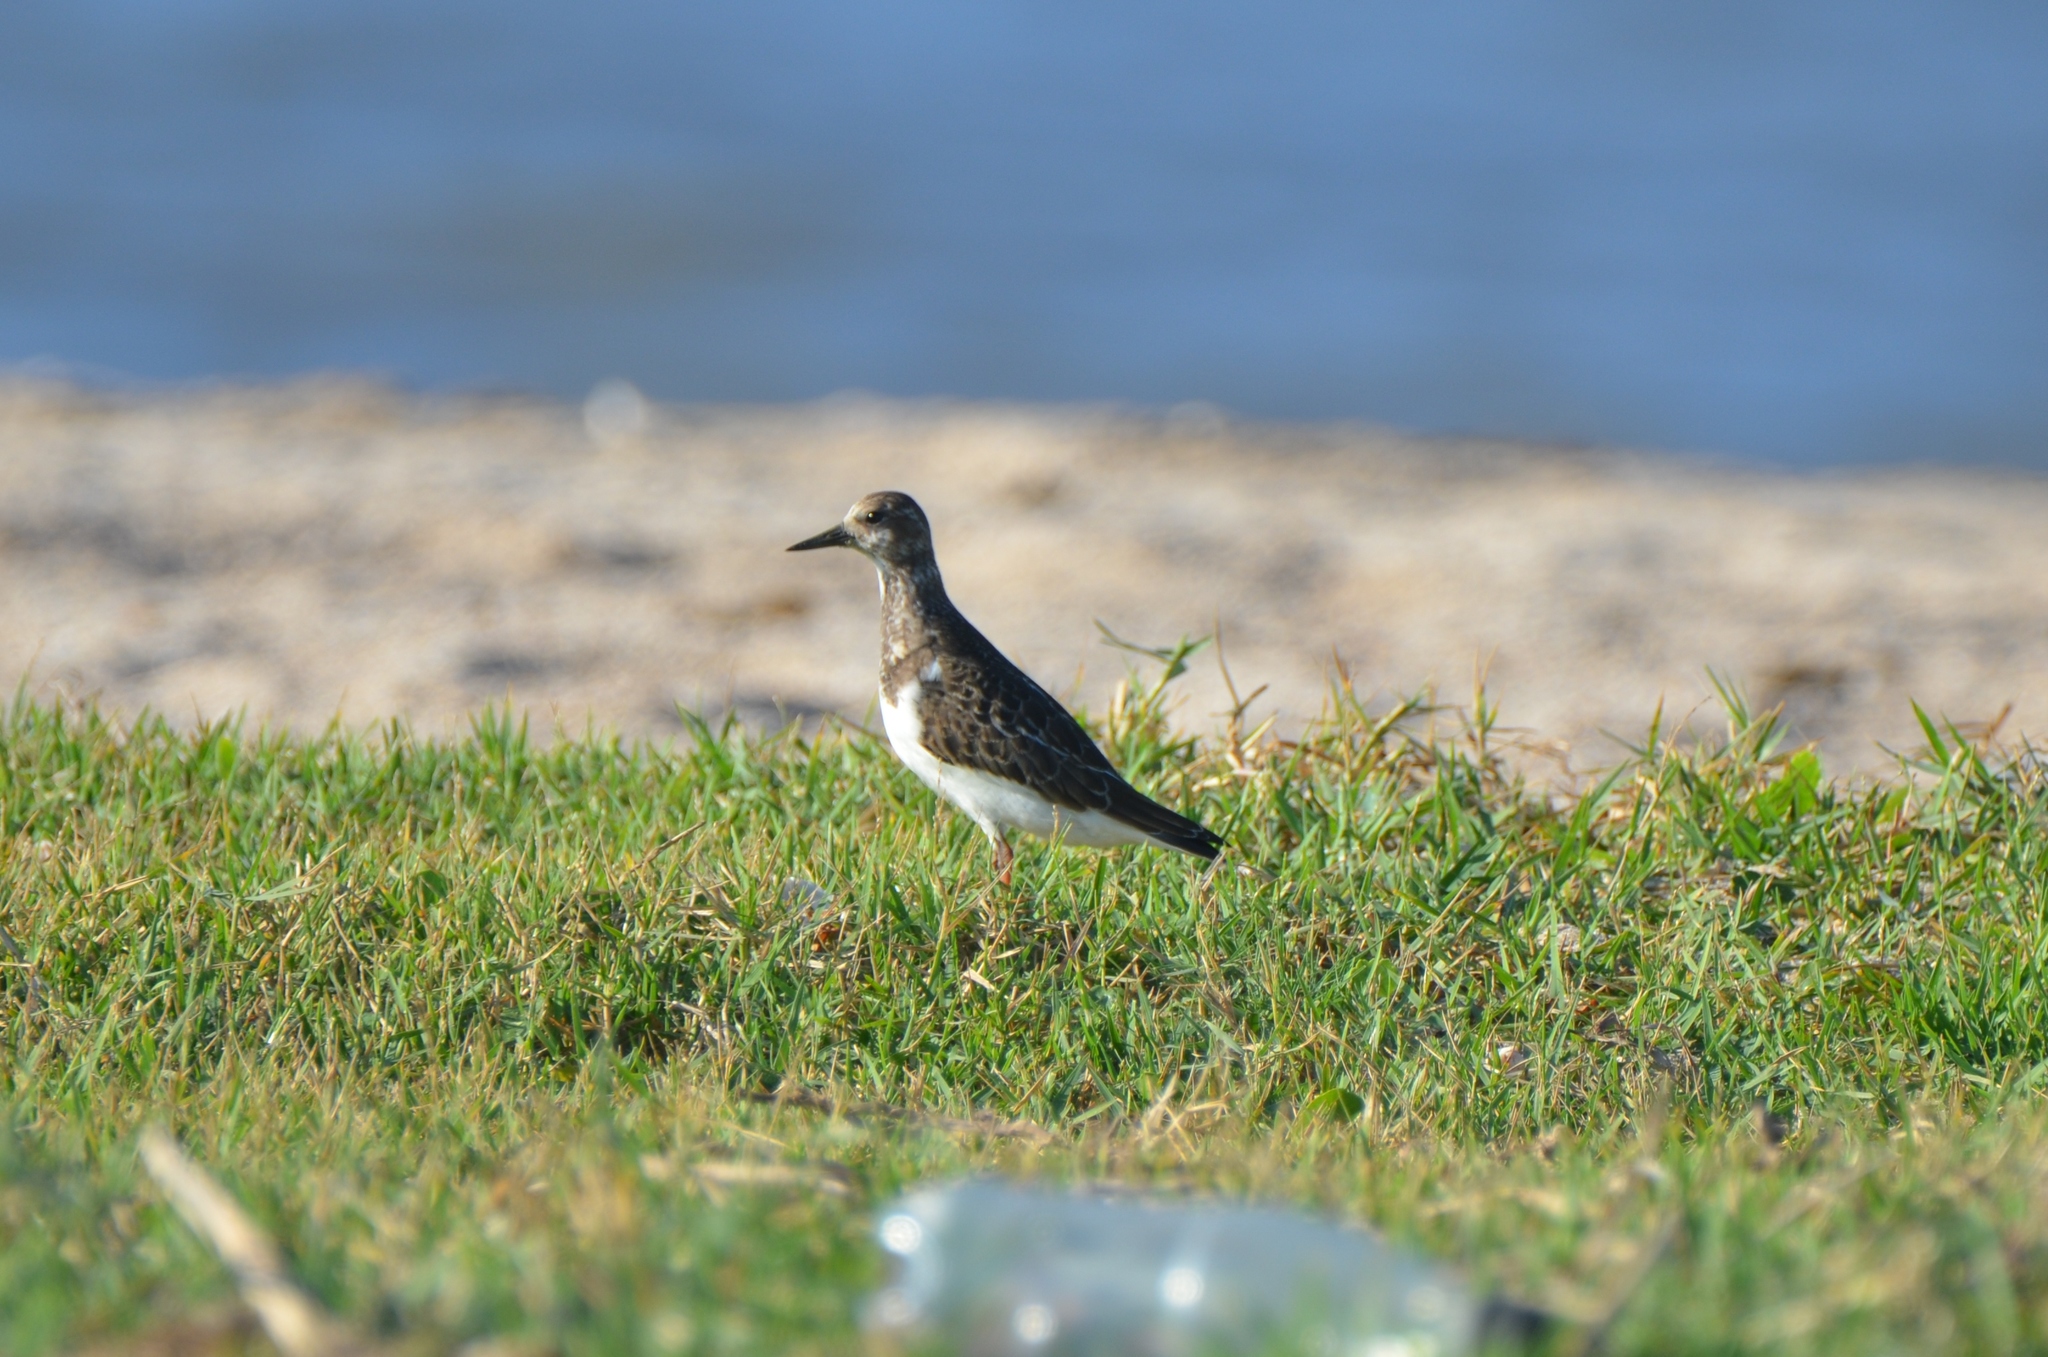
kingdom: Animalia
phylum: Chordata
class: Aves
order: Charadriiformes
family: Scolopacidae
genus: Arenaria
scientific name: Arenaria interpres
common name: Ruddy turnstone
